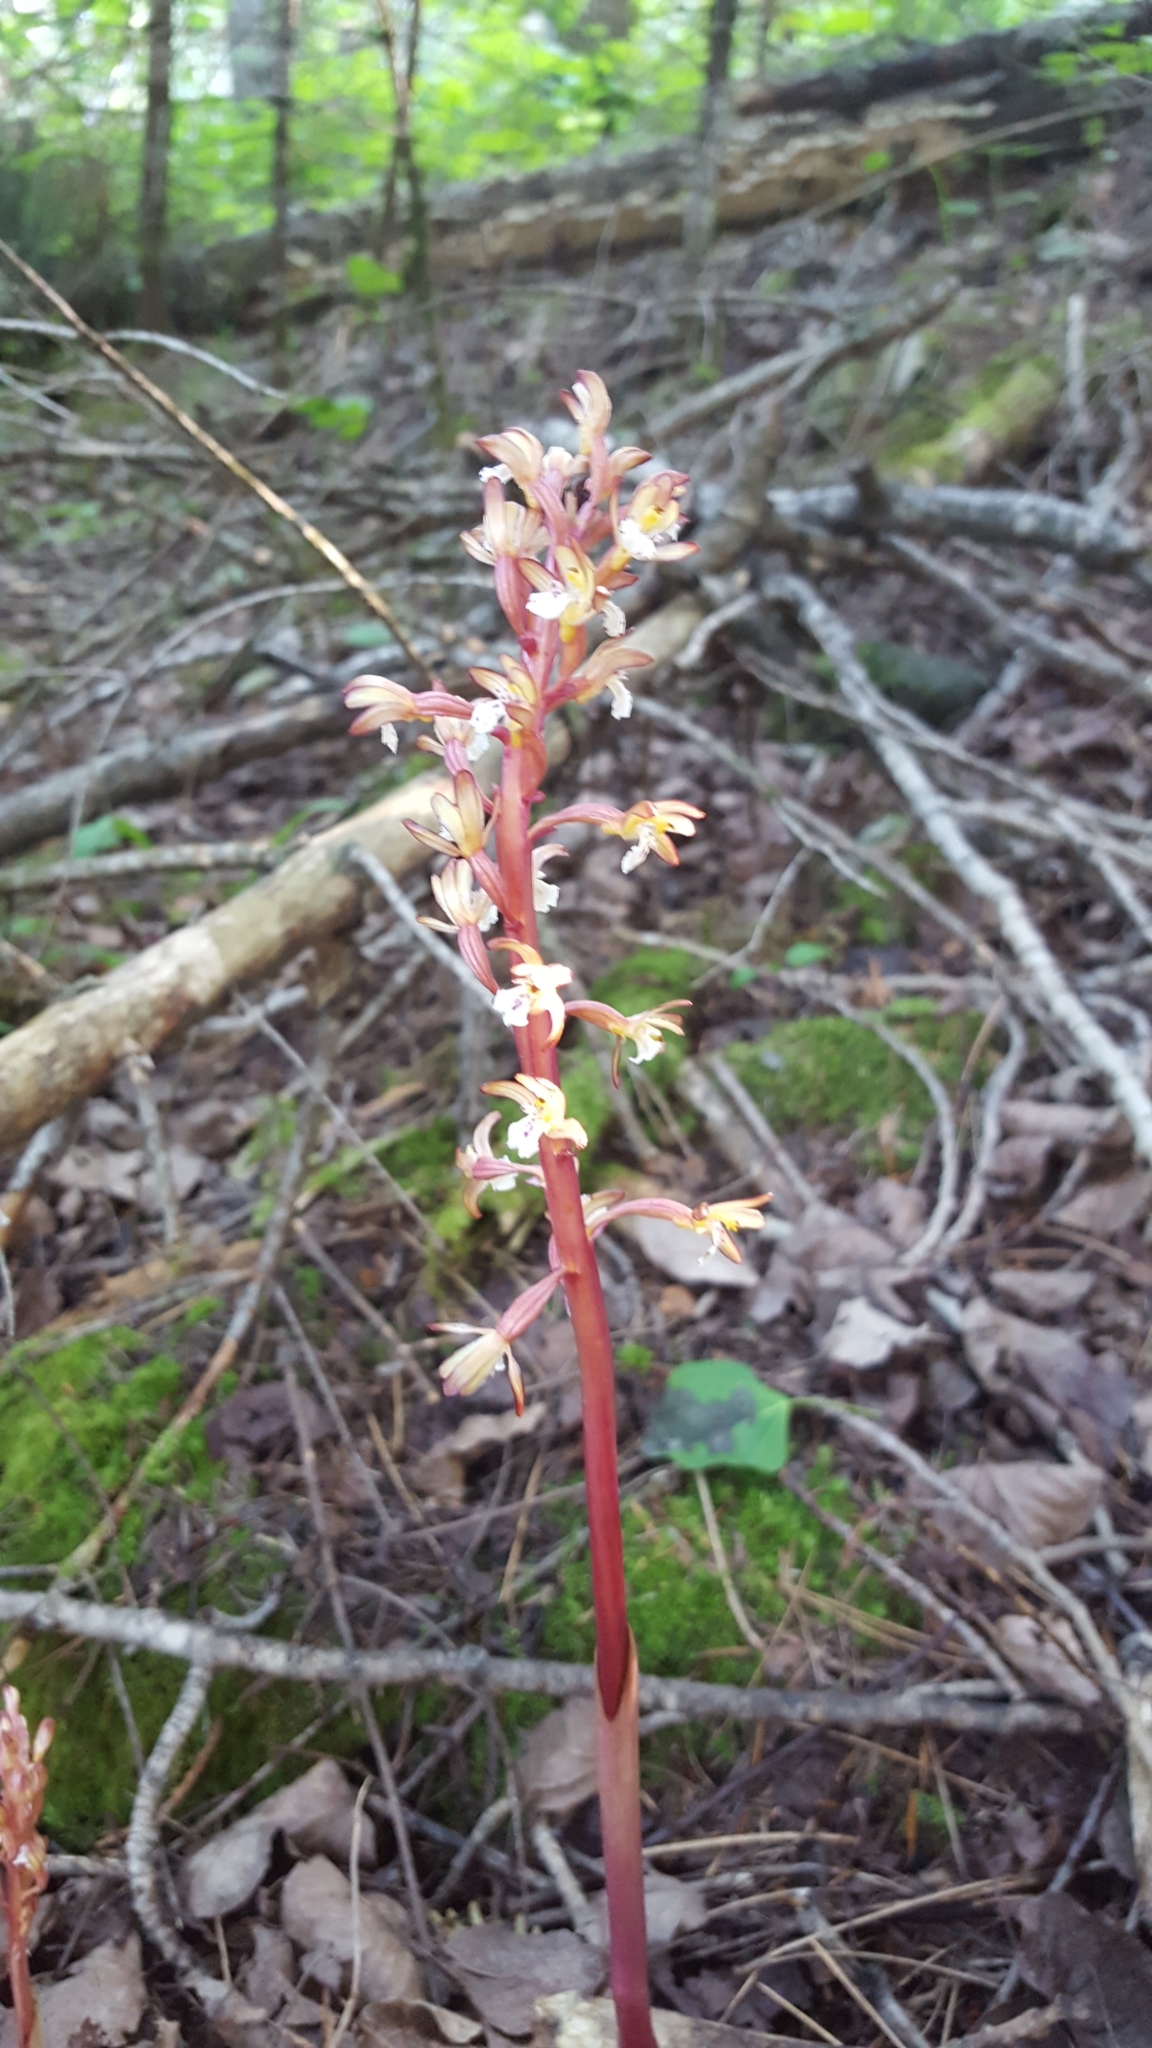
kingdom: Plantae
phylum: Tracheophyta
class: Liliopsida
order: Asparagales
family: Orchidaceae
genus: Corallorhiza
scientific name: Corallorhiza maculata
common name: Spotted coralroot
